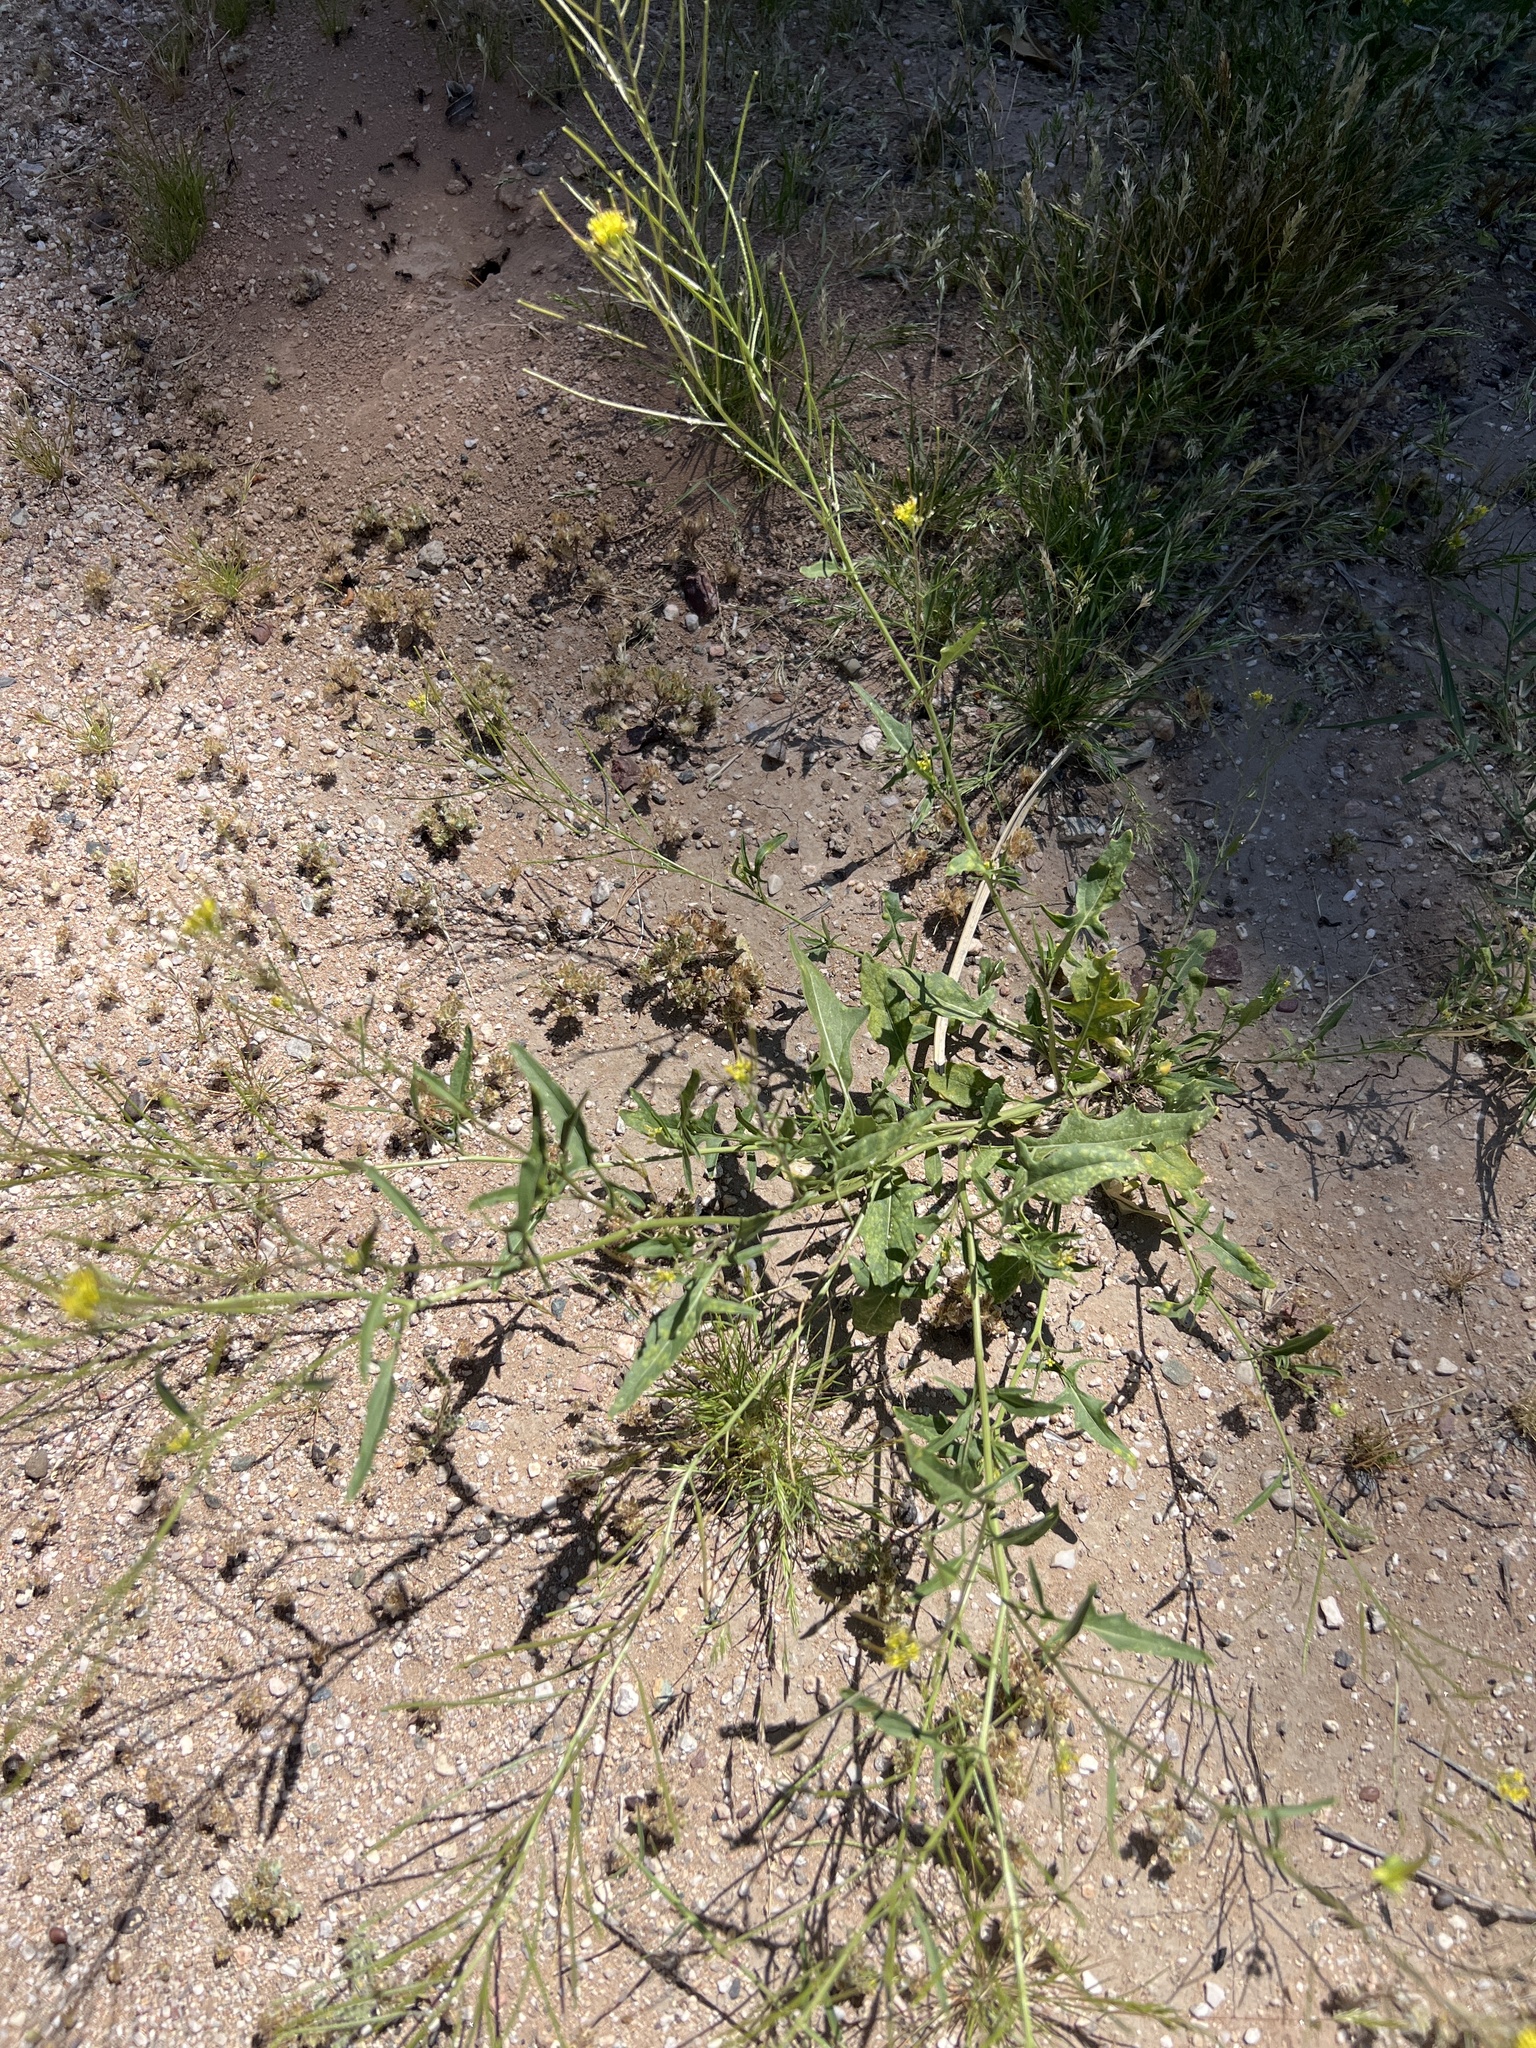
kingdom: Plantae
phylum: Tracheophyta
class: Magnoliopsida
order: Brassicales
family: Brassicaceae
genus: Sisymbrium
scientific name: Sisymbrium irio
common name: London rocket
